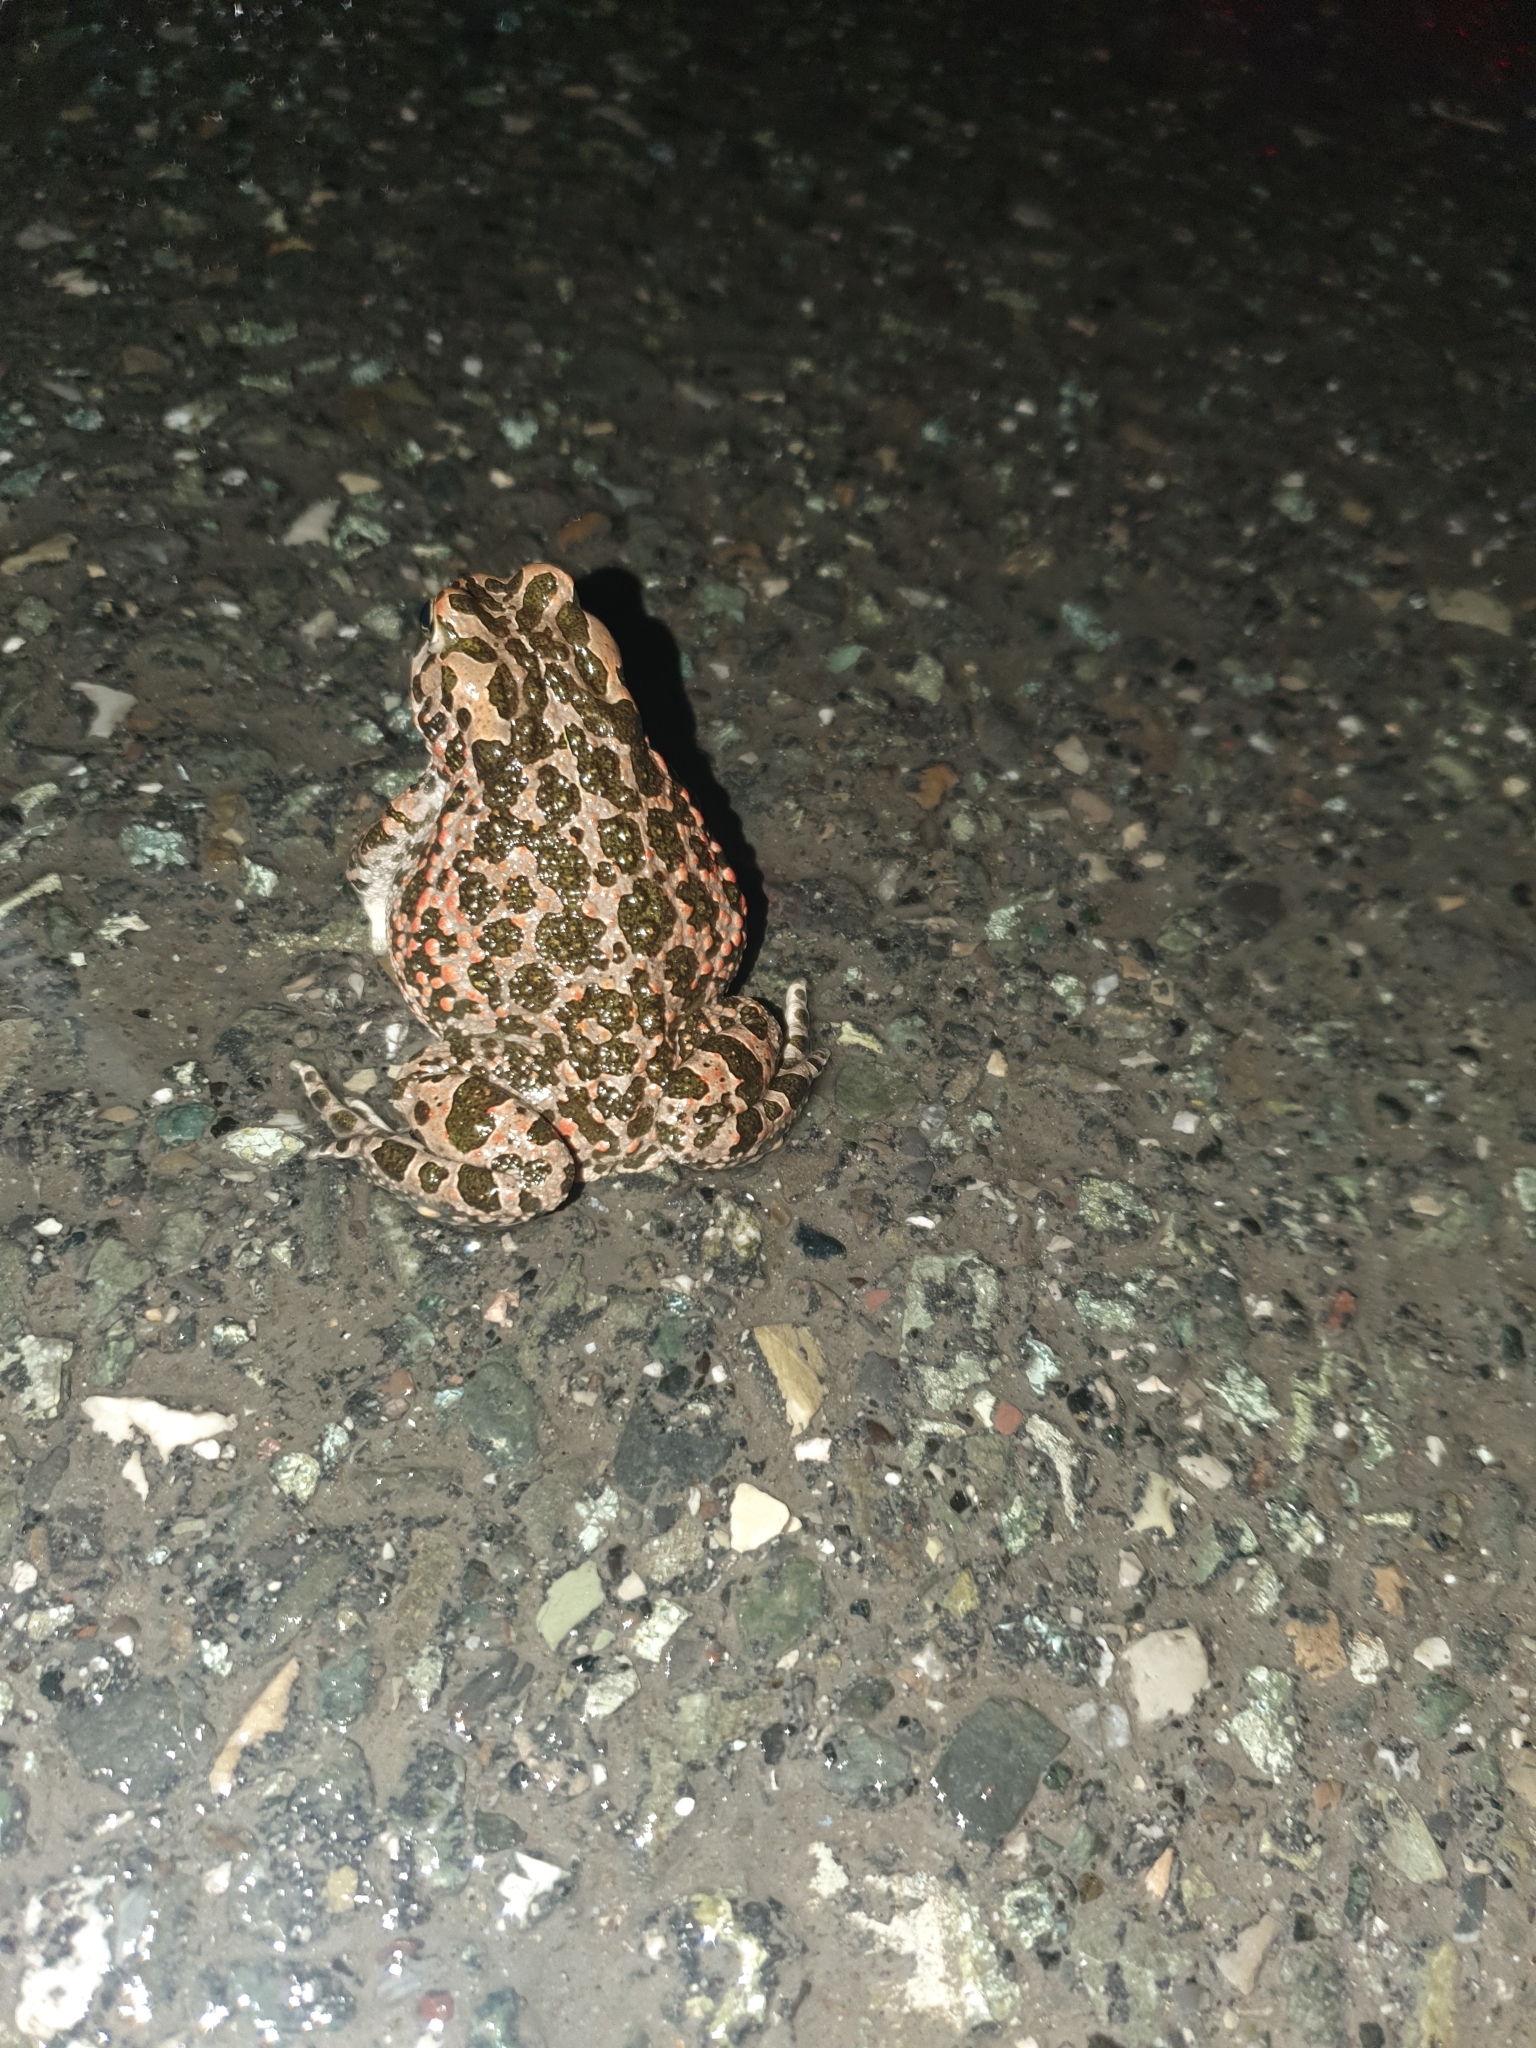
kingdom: Animalia
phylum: Chordata
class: Amphibia
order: Anura
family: Bufonidae
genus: Bufotes
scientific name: Bufotes viridis
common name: European green toad
